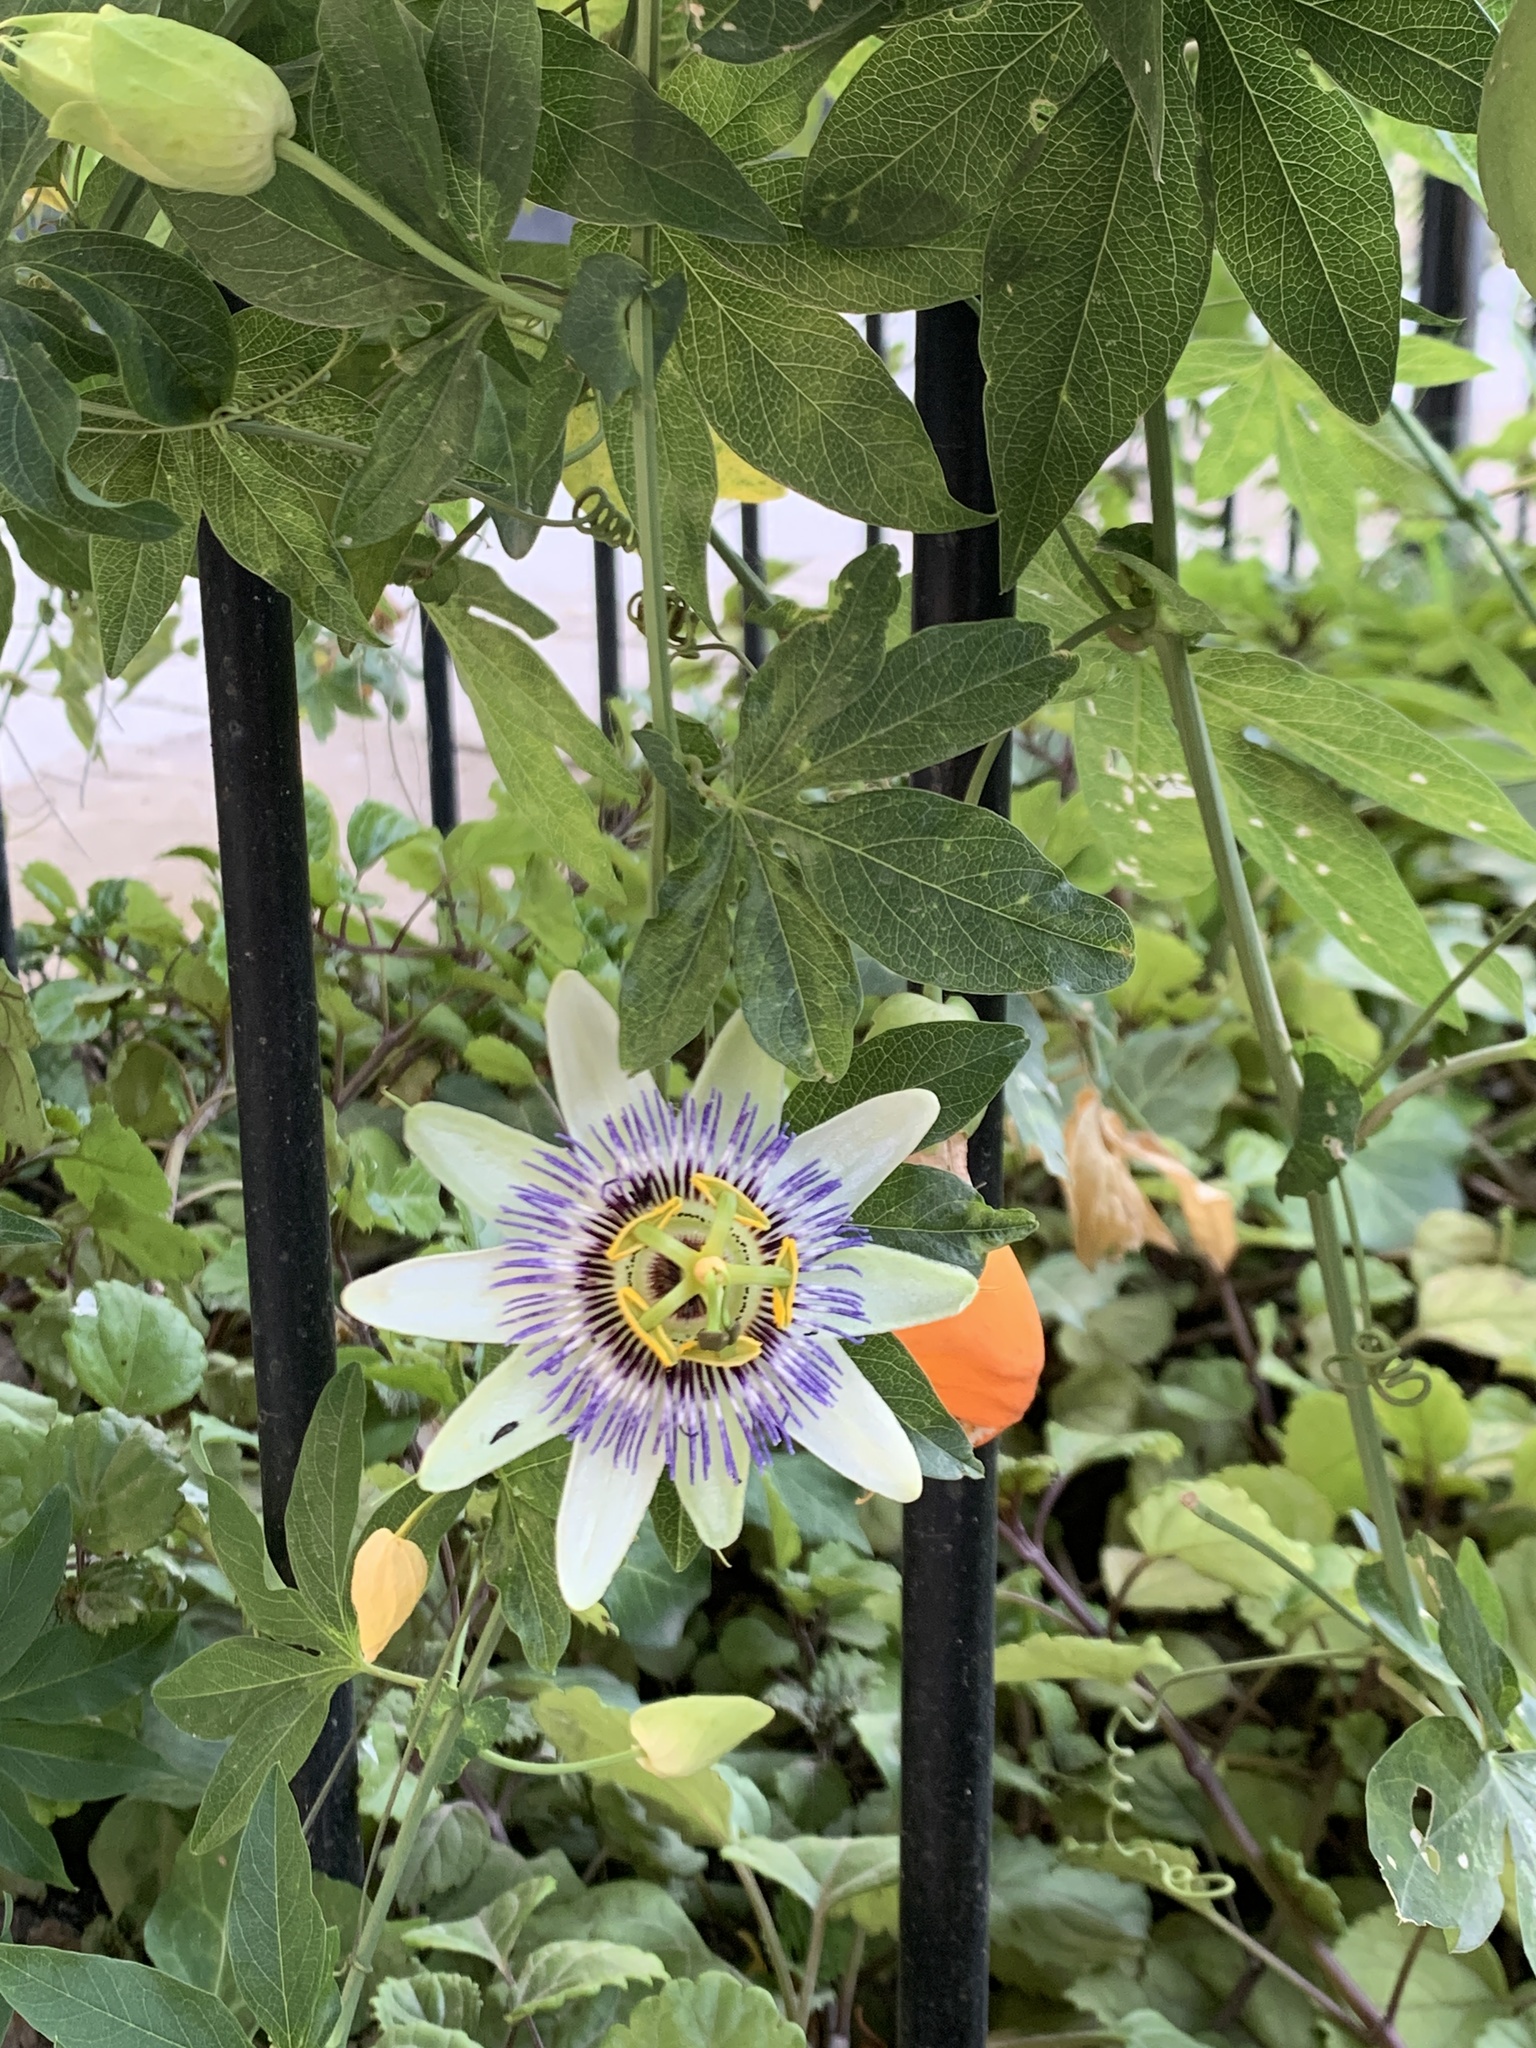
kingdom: Plantae
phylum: Tracheophyta
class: Magnoliopsida
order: Malpighiales
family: Passifloraceae
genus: Passiflora
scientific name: Passiflora caerulea
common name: Blue passionflower
